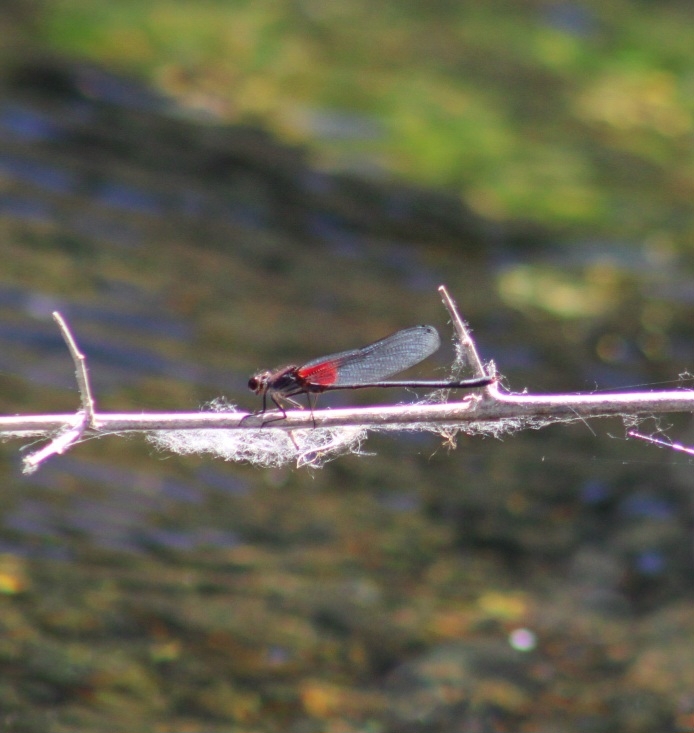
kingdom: Animalia
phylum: Arthropoda
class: Insecta
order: Odonata
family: Calopterygidae
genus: Hetaerina
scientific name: Hetaerina americana
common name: American rubyspot
